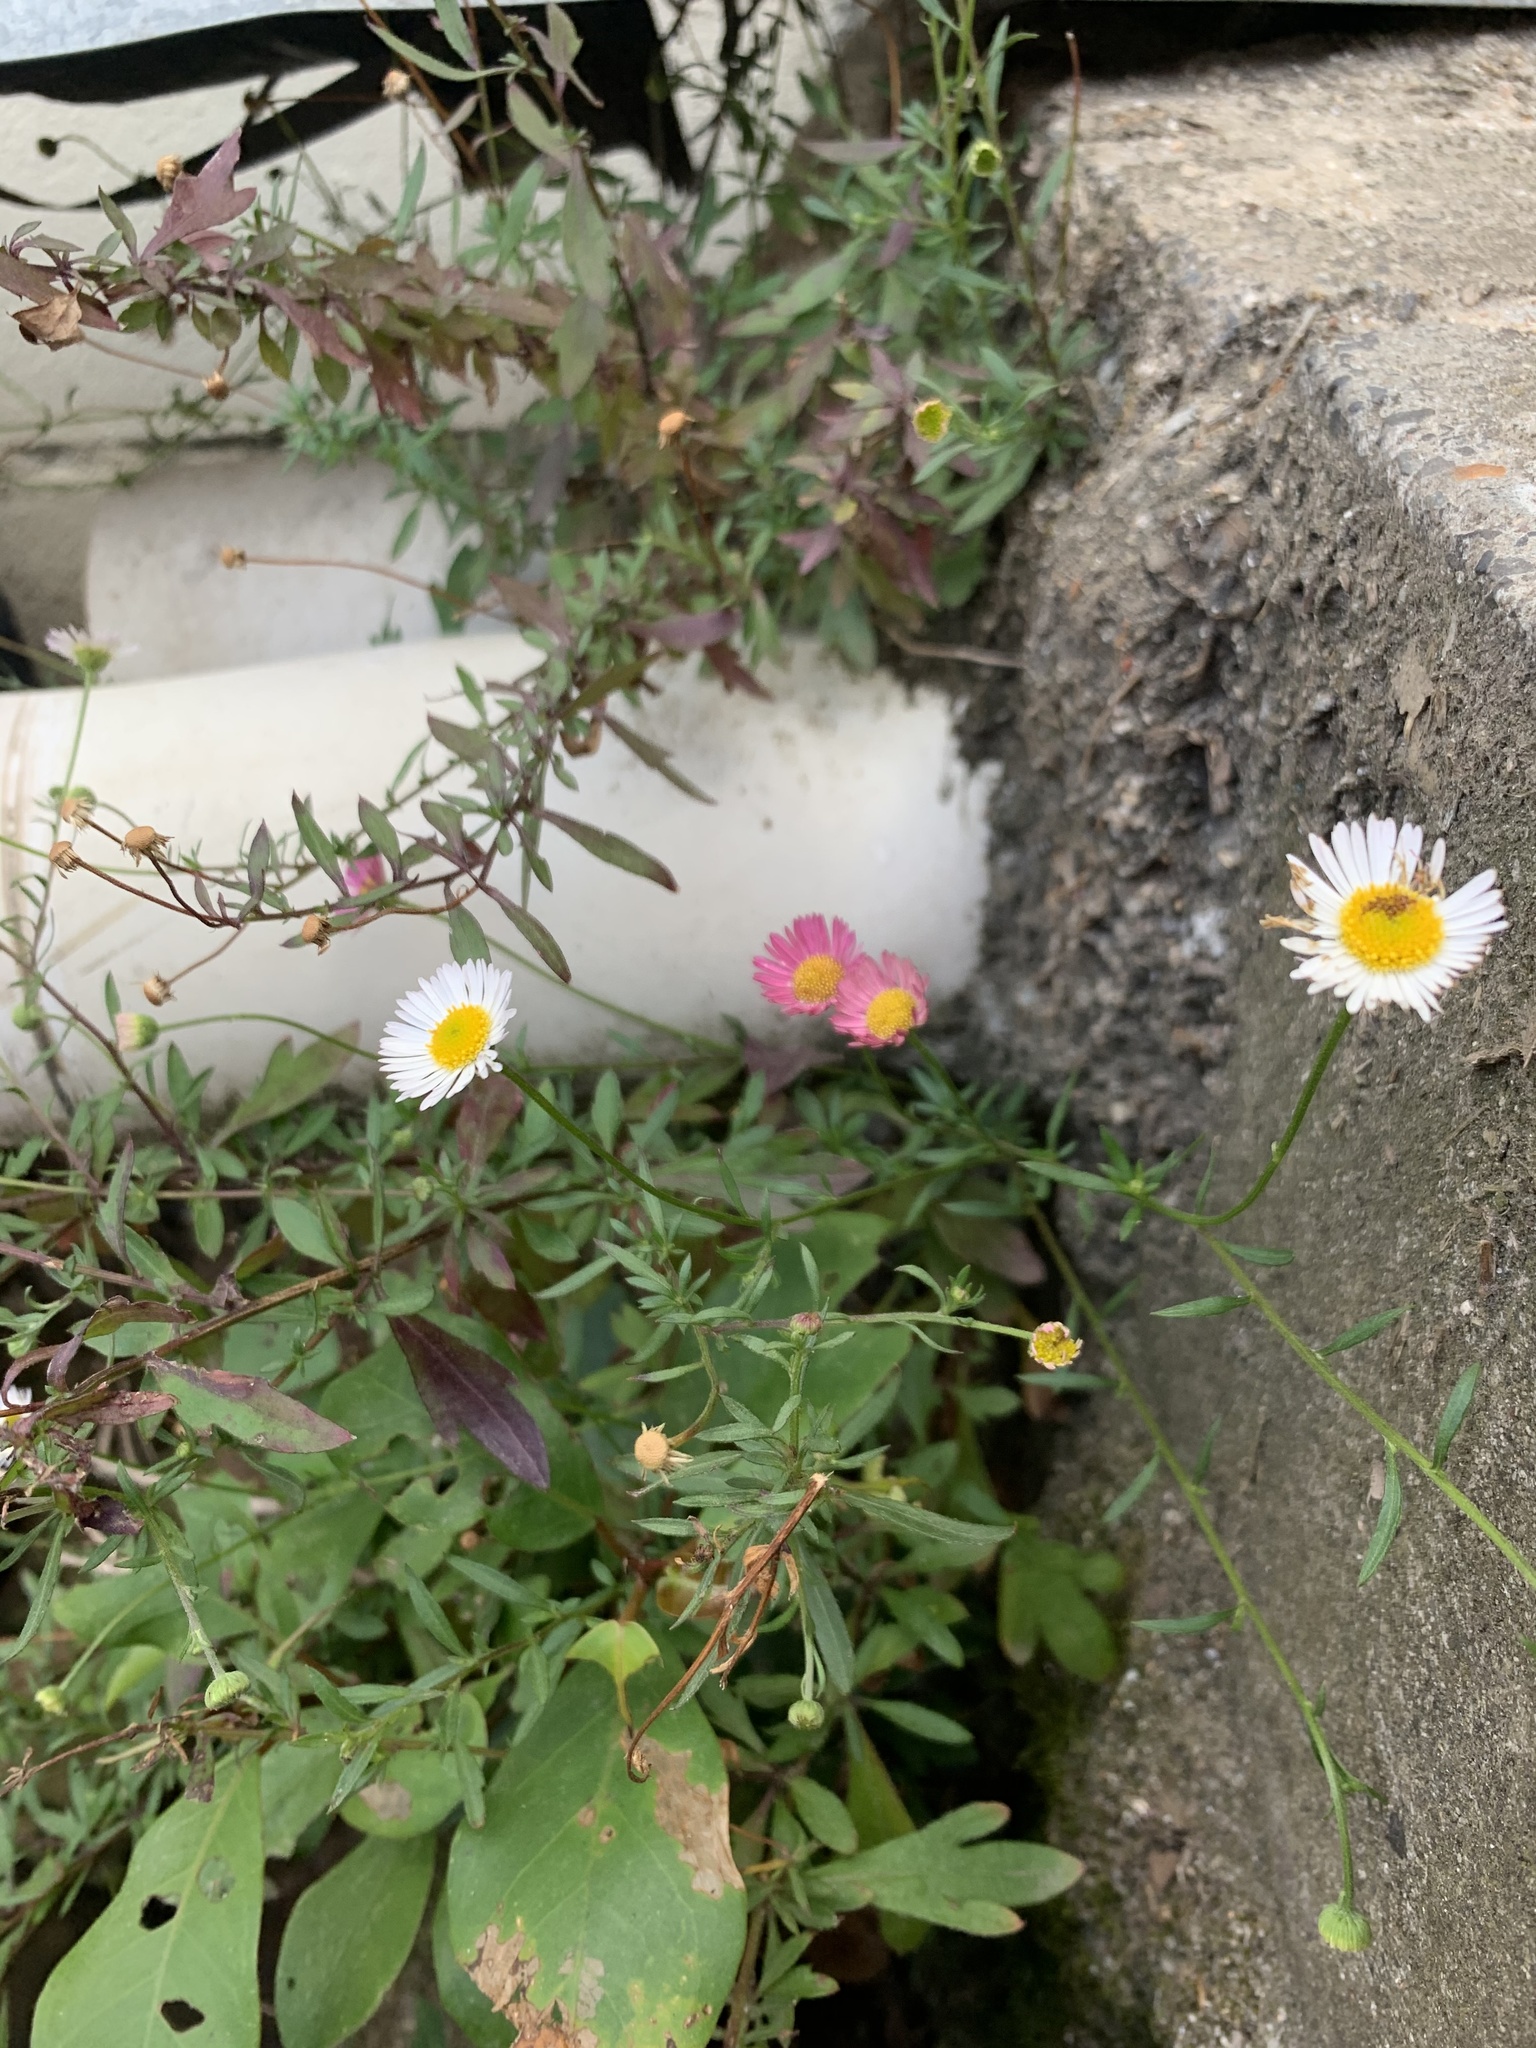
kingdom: Plantae
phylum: Tracheophyta
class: Magnoliopsida
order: Asterales
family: Asteraceae
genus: Erigeron
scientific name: Erigeron karvinskianus
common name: Mexican fleabane
